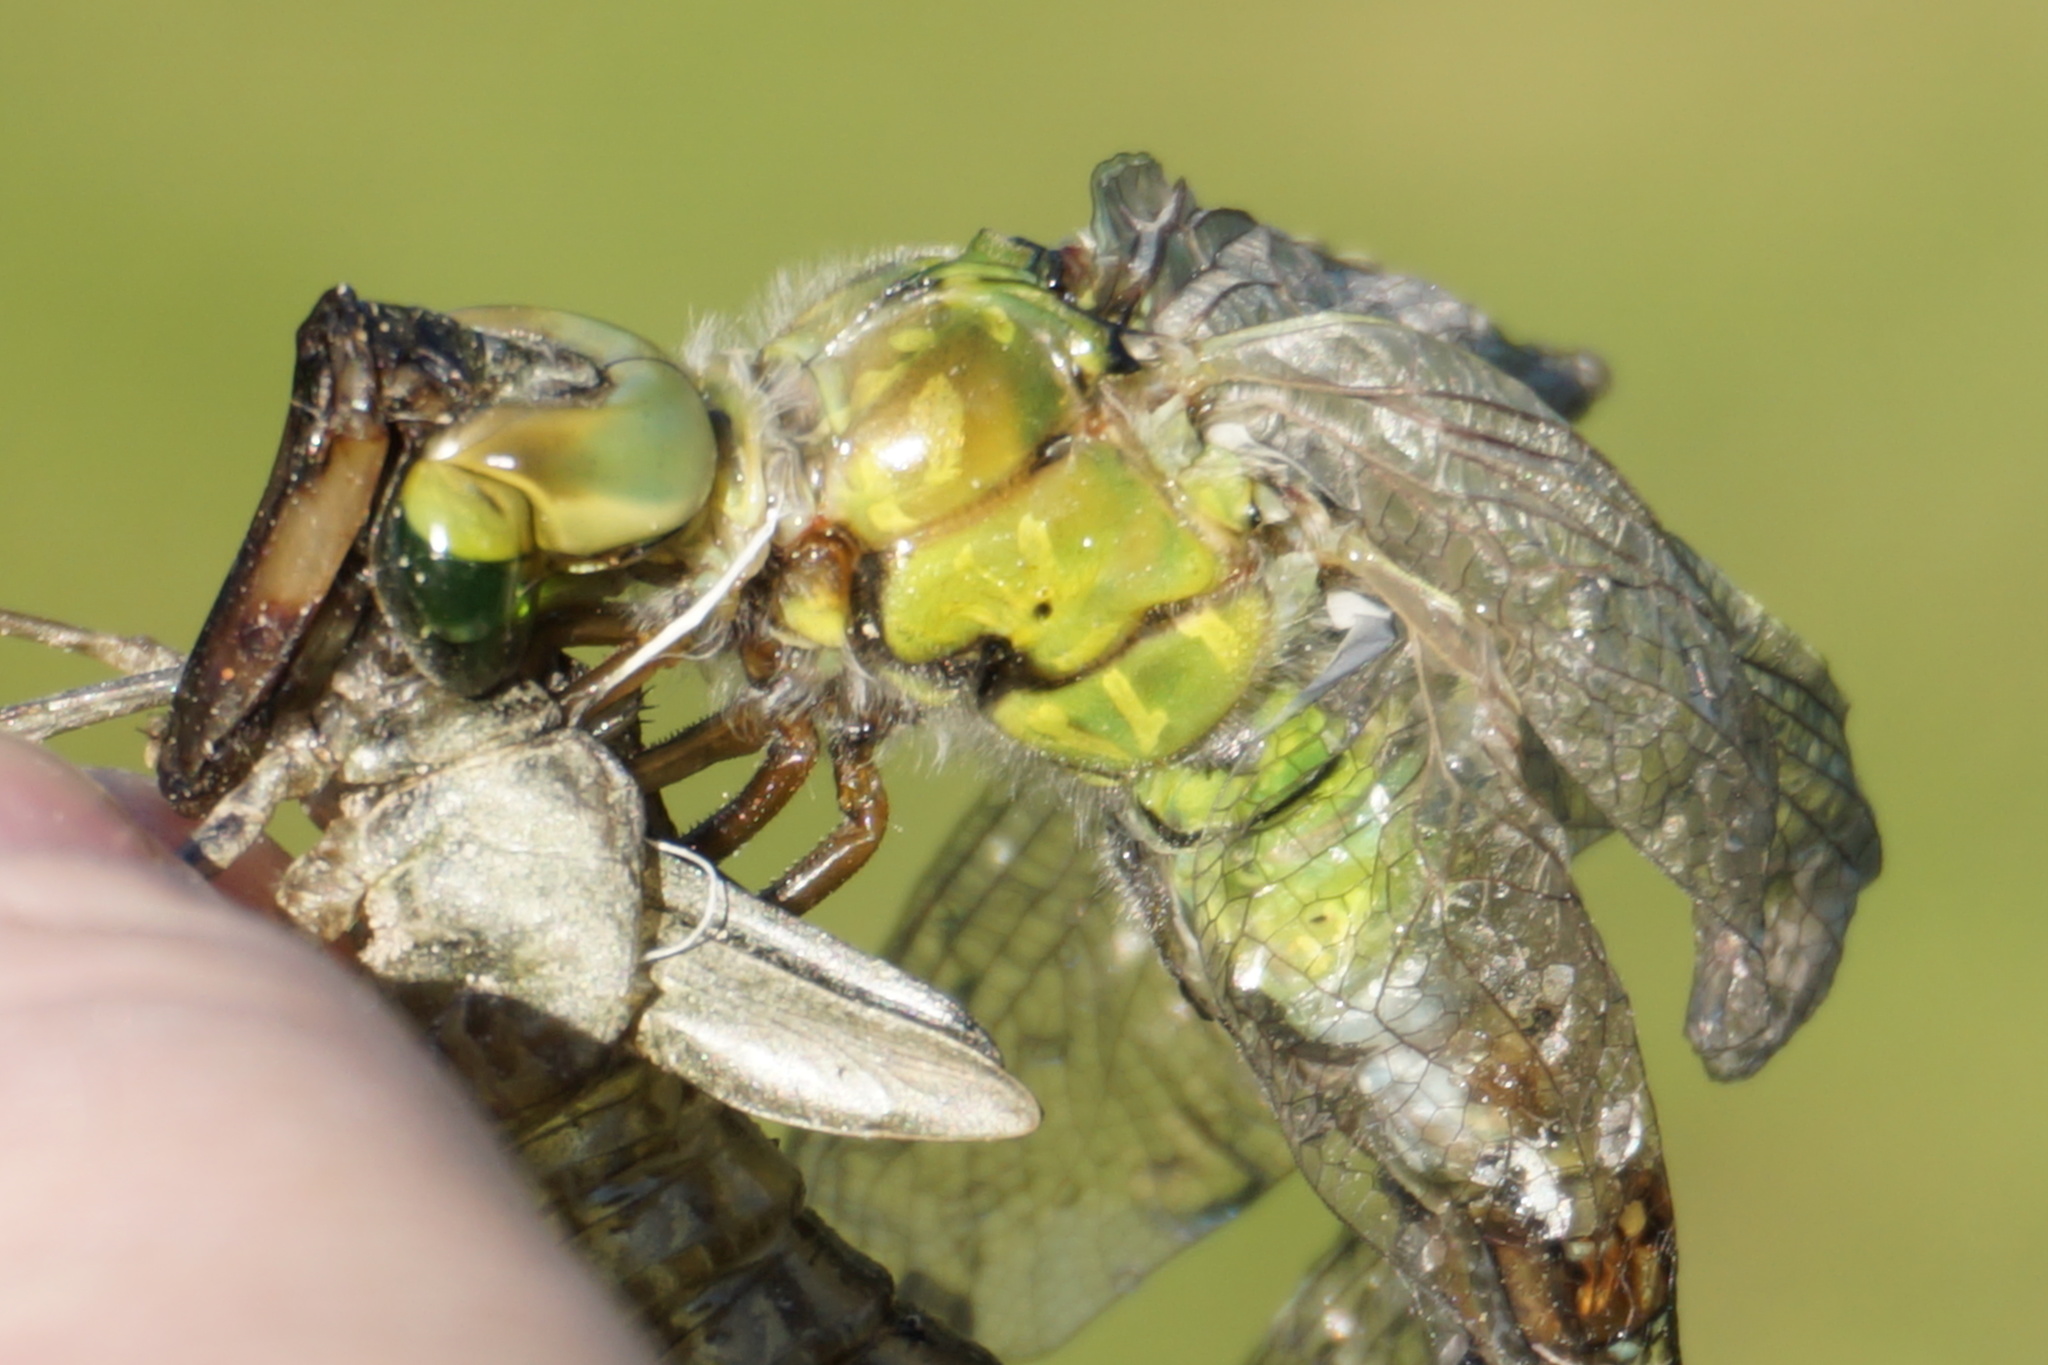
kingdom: Animalia
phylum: Arthropoda
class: Insecta
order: Odonata
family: Aeshnidae
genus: Anax
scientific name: Anax imperator
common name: Emperor dragonfly
